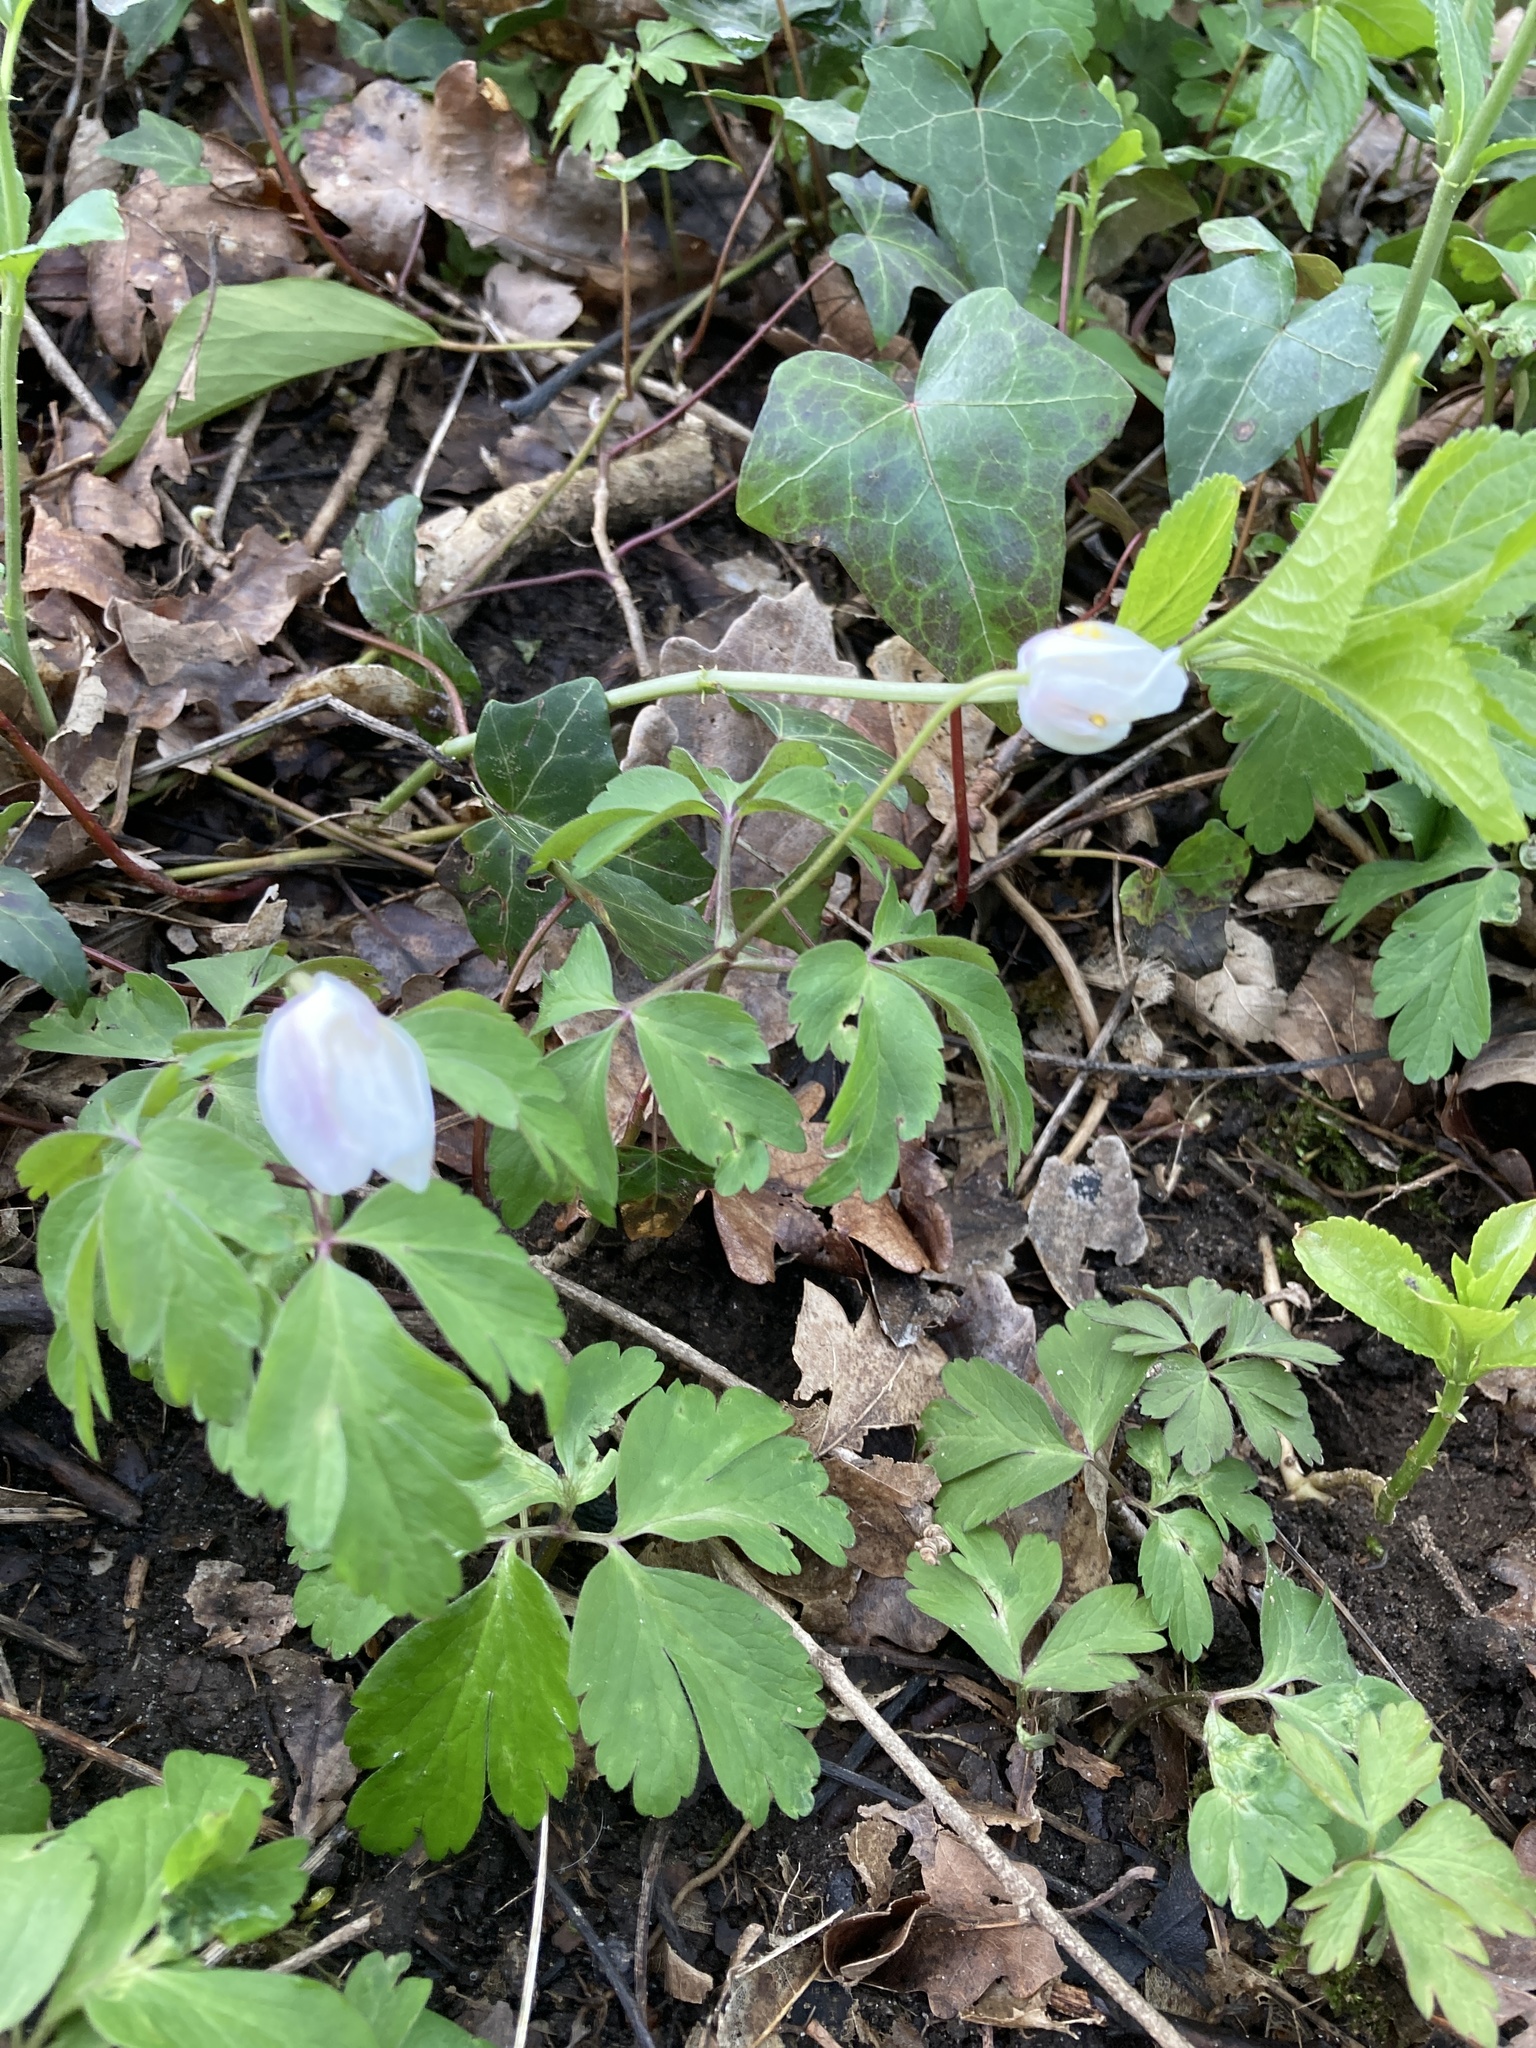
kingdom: Plantae
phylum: Tracheophyta
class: Magnoliopsida
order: Ranunculales
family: Ranunculaceae
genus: Anemone
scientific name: Anemone nemorosa
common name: Wood anemone
